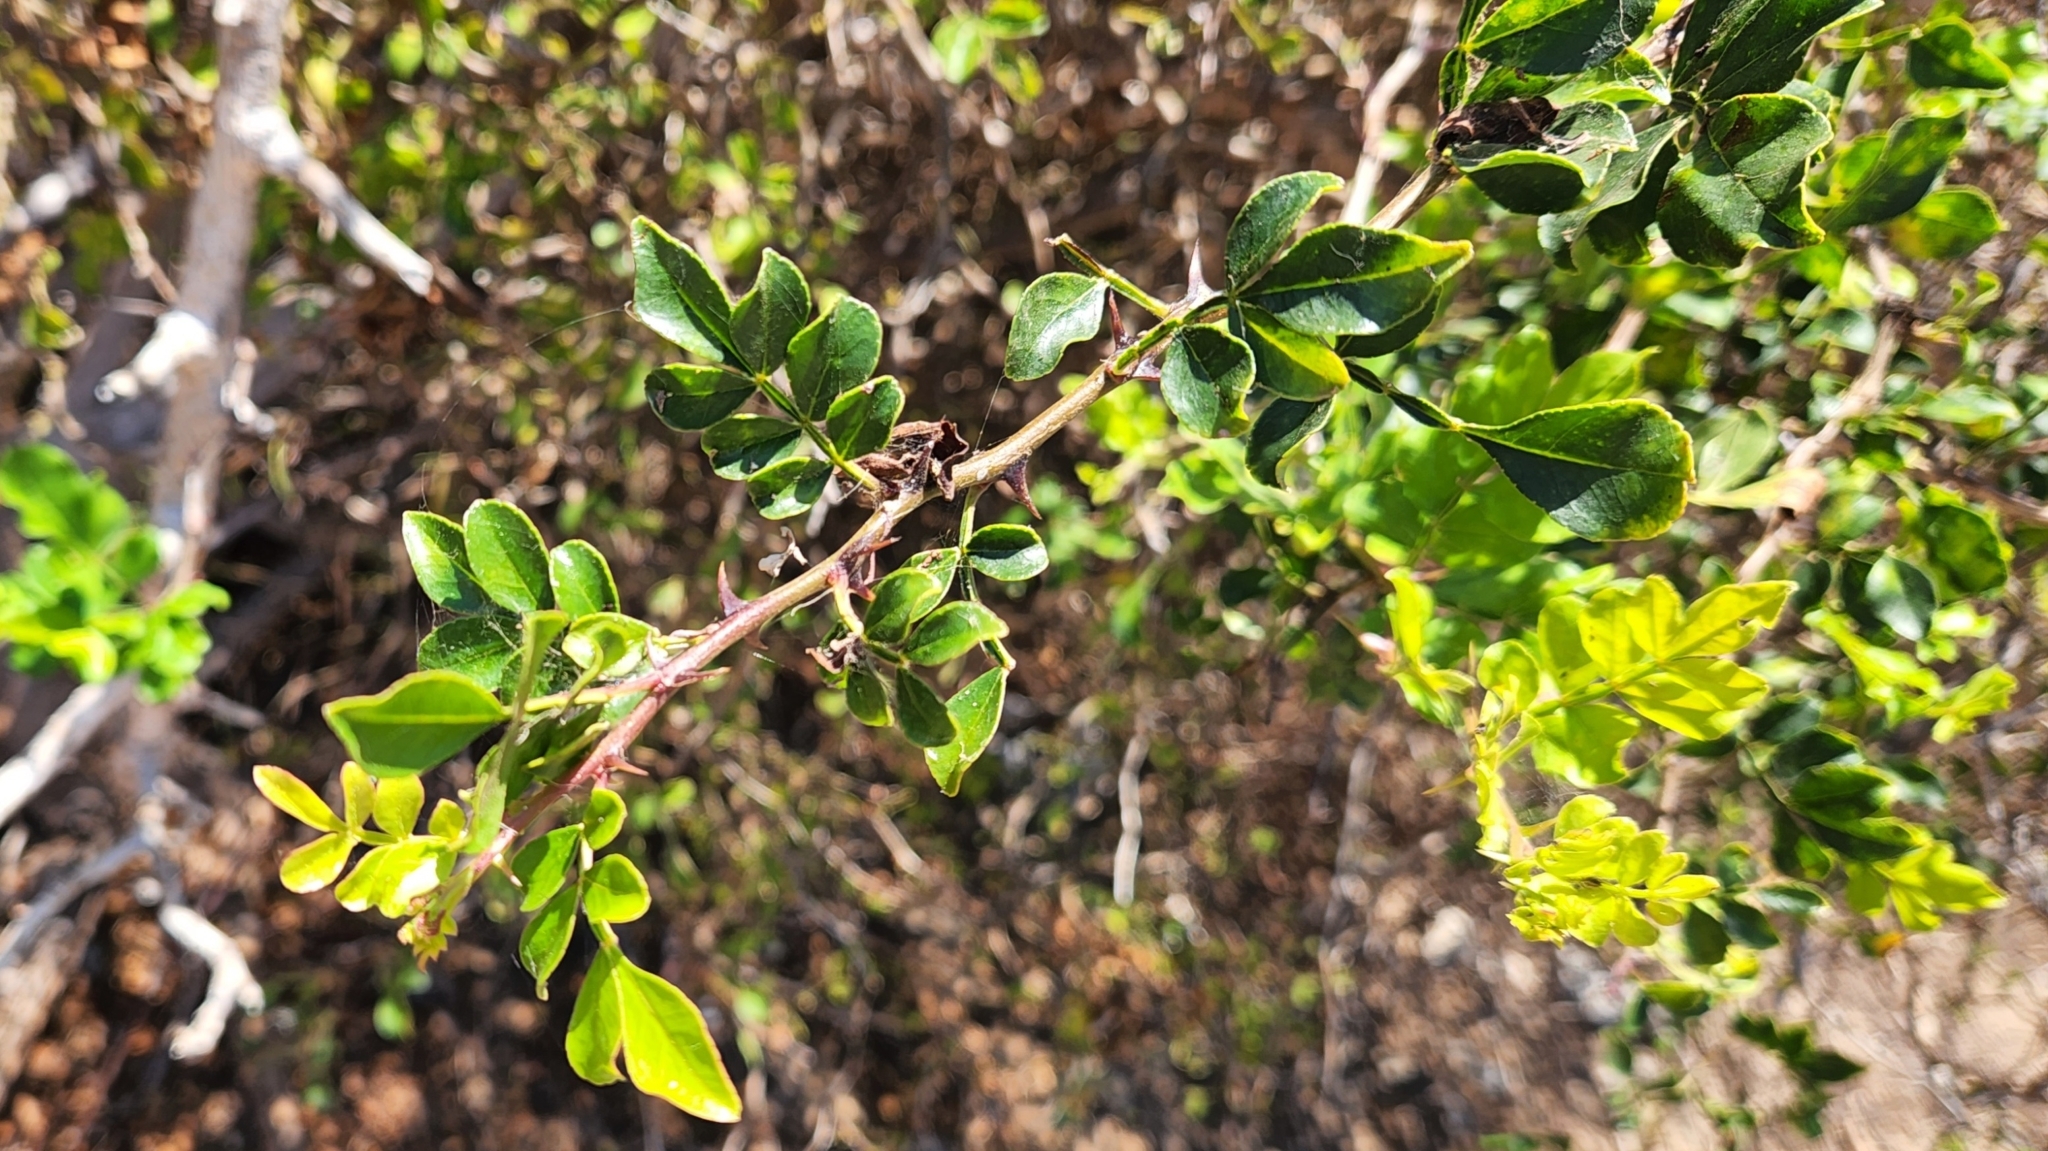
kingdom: Plantae
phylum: Tracheophyta
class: Magnoliopsida
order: Sapindales
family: Rutaceae
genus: Zanthoxylum
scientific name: Zanthoxylum fagara
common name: Lime prickly-ash
